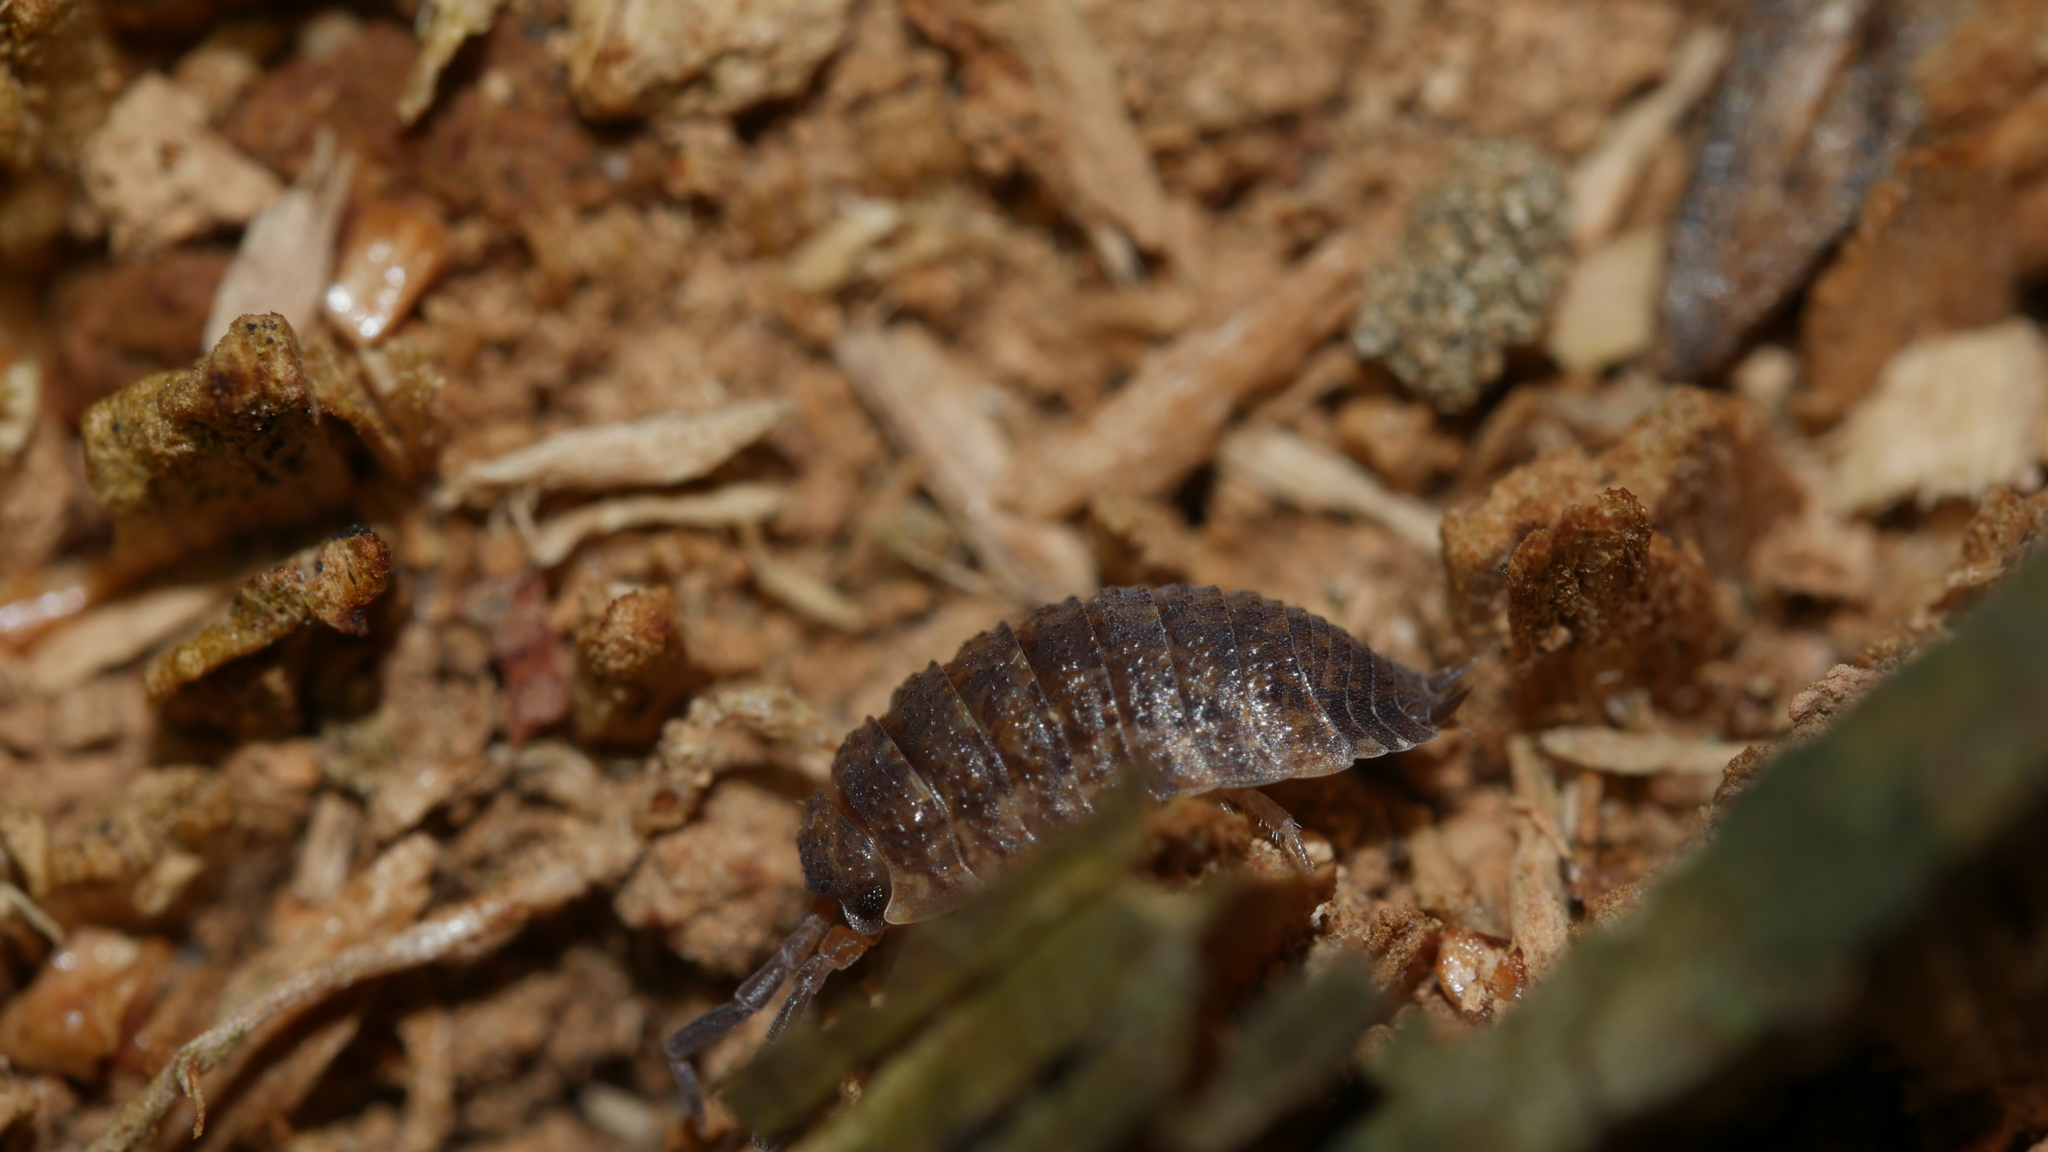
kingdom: Animalia
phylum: Arthropoda
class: Malacostraca
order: Isopoda
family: Porcellionidae
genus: Porcellio
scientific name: Porcellio scaber
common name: Common rough woodlouse
